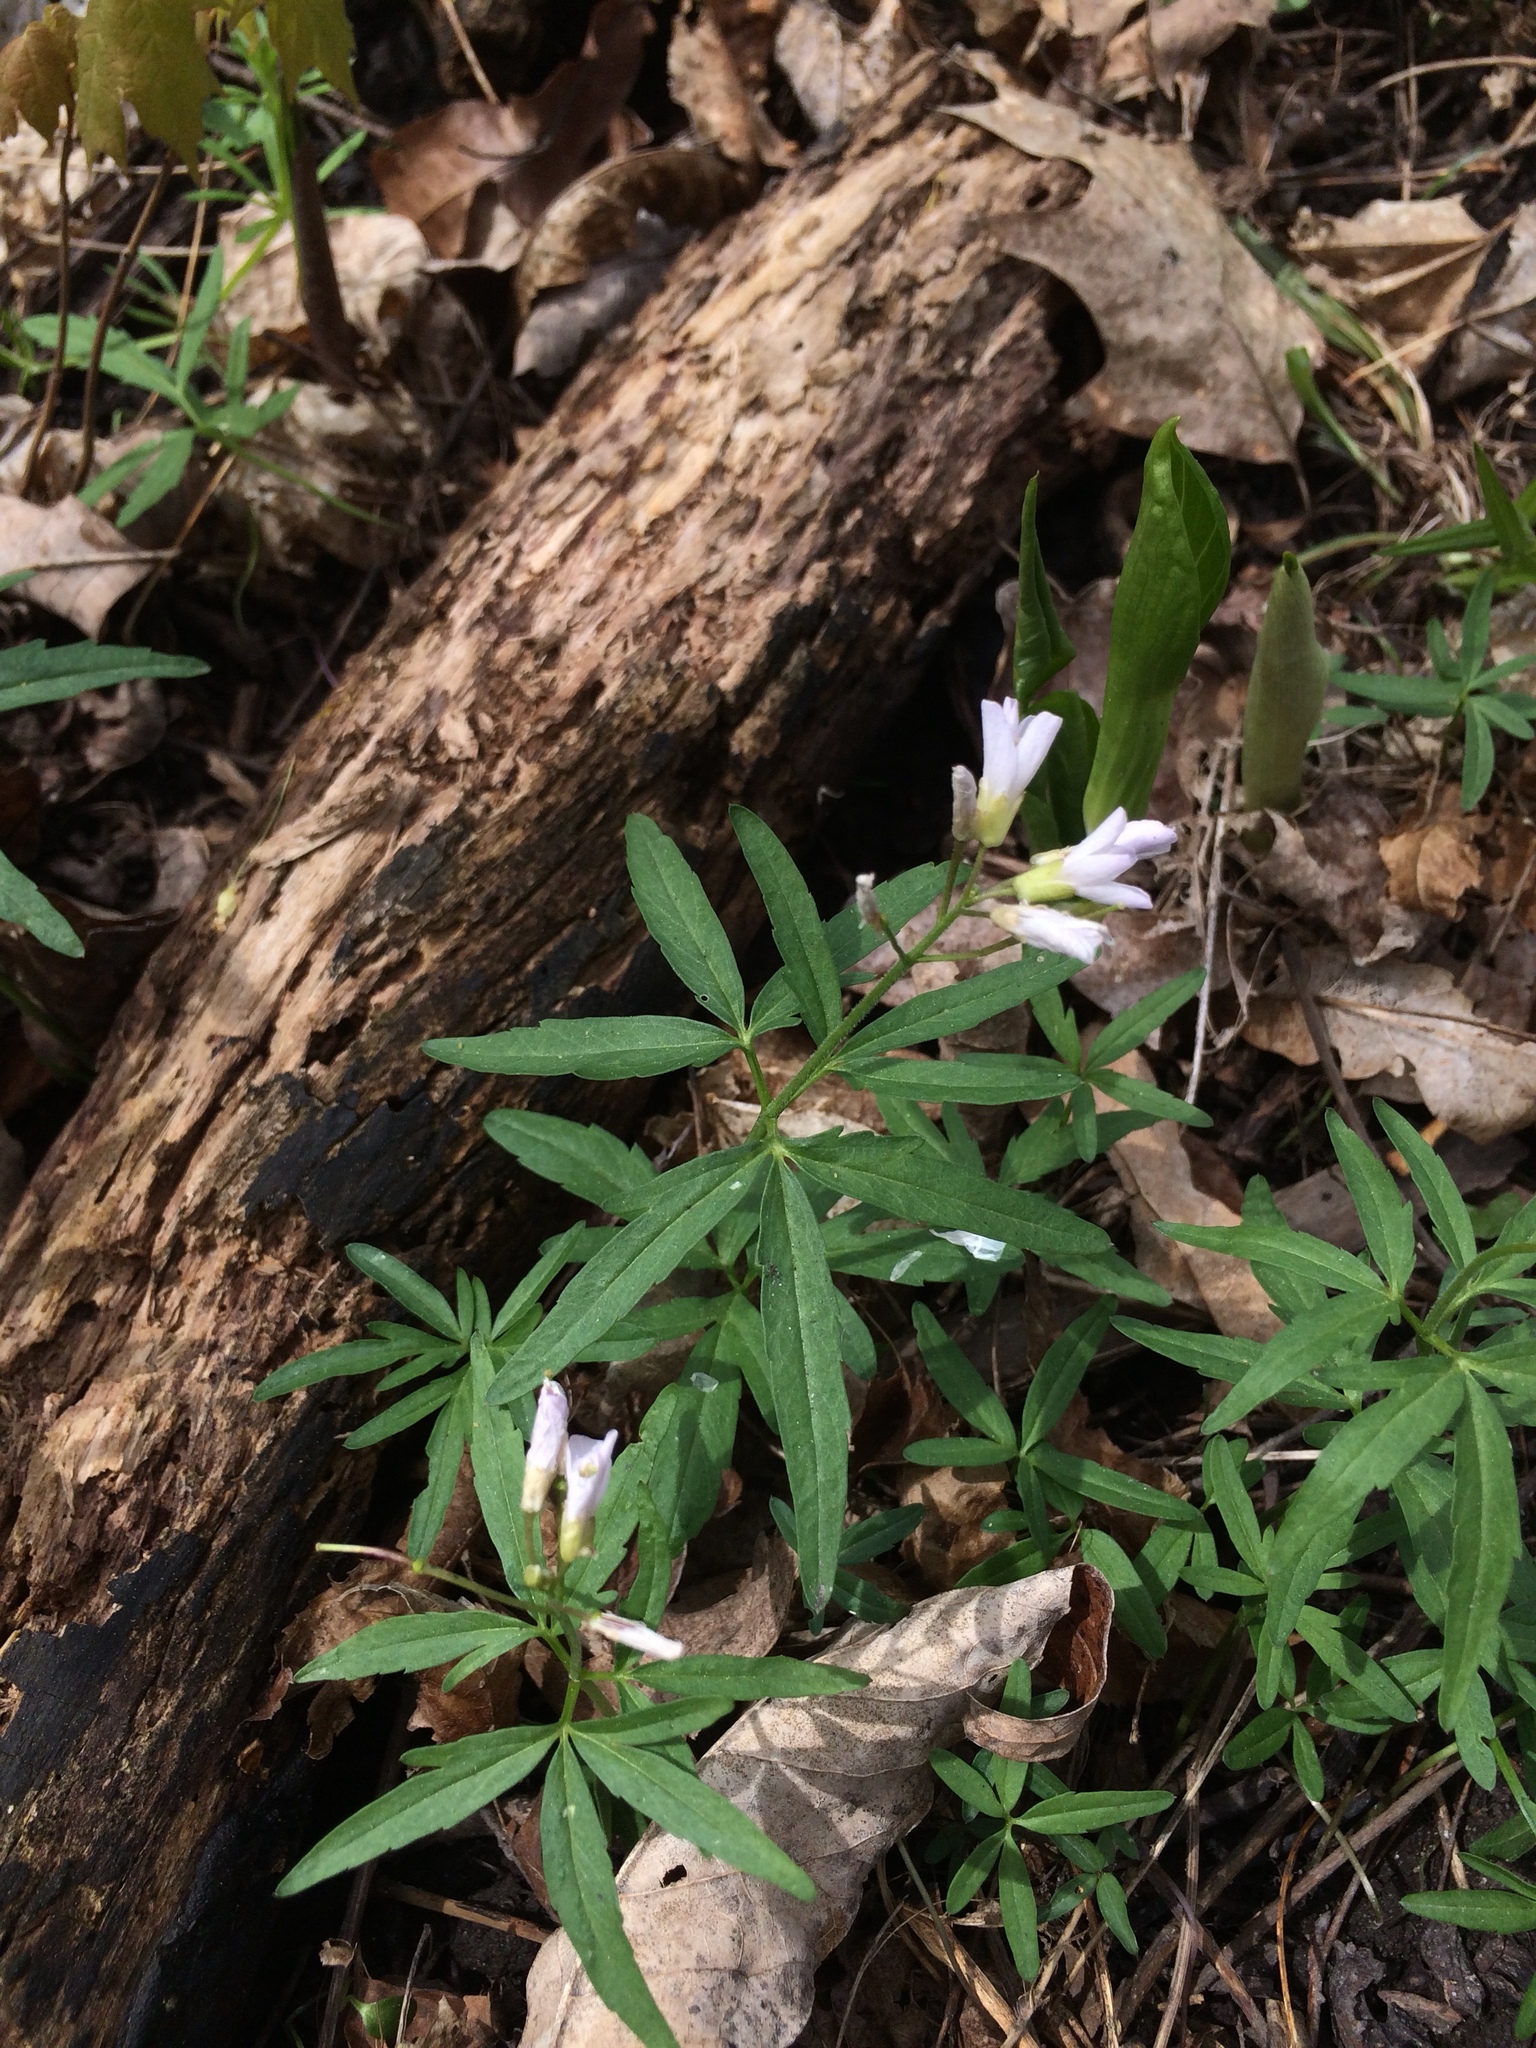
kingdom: Plantae
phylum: Tracheophyta
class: Magnoliopsida
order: Brassicales
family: Brassicaceae
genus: Cardamine
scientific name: Cardamine concatenata
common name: Cut-leaf toothcup
